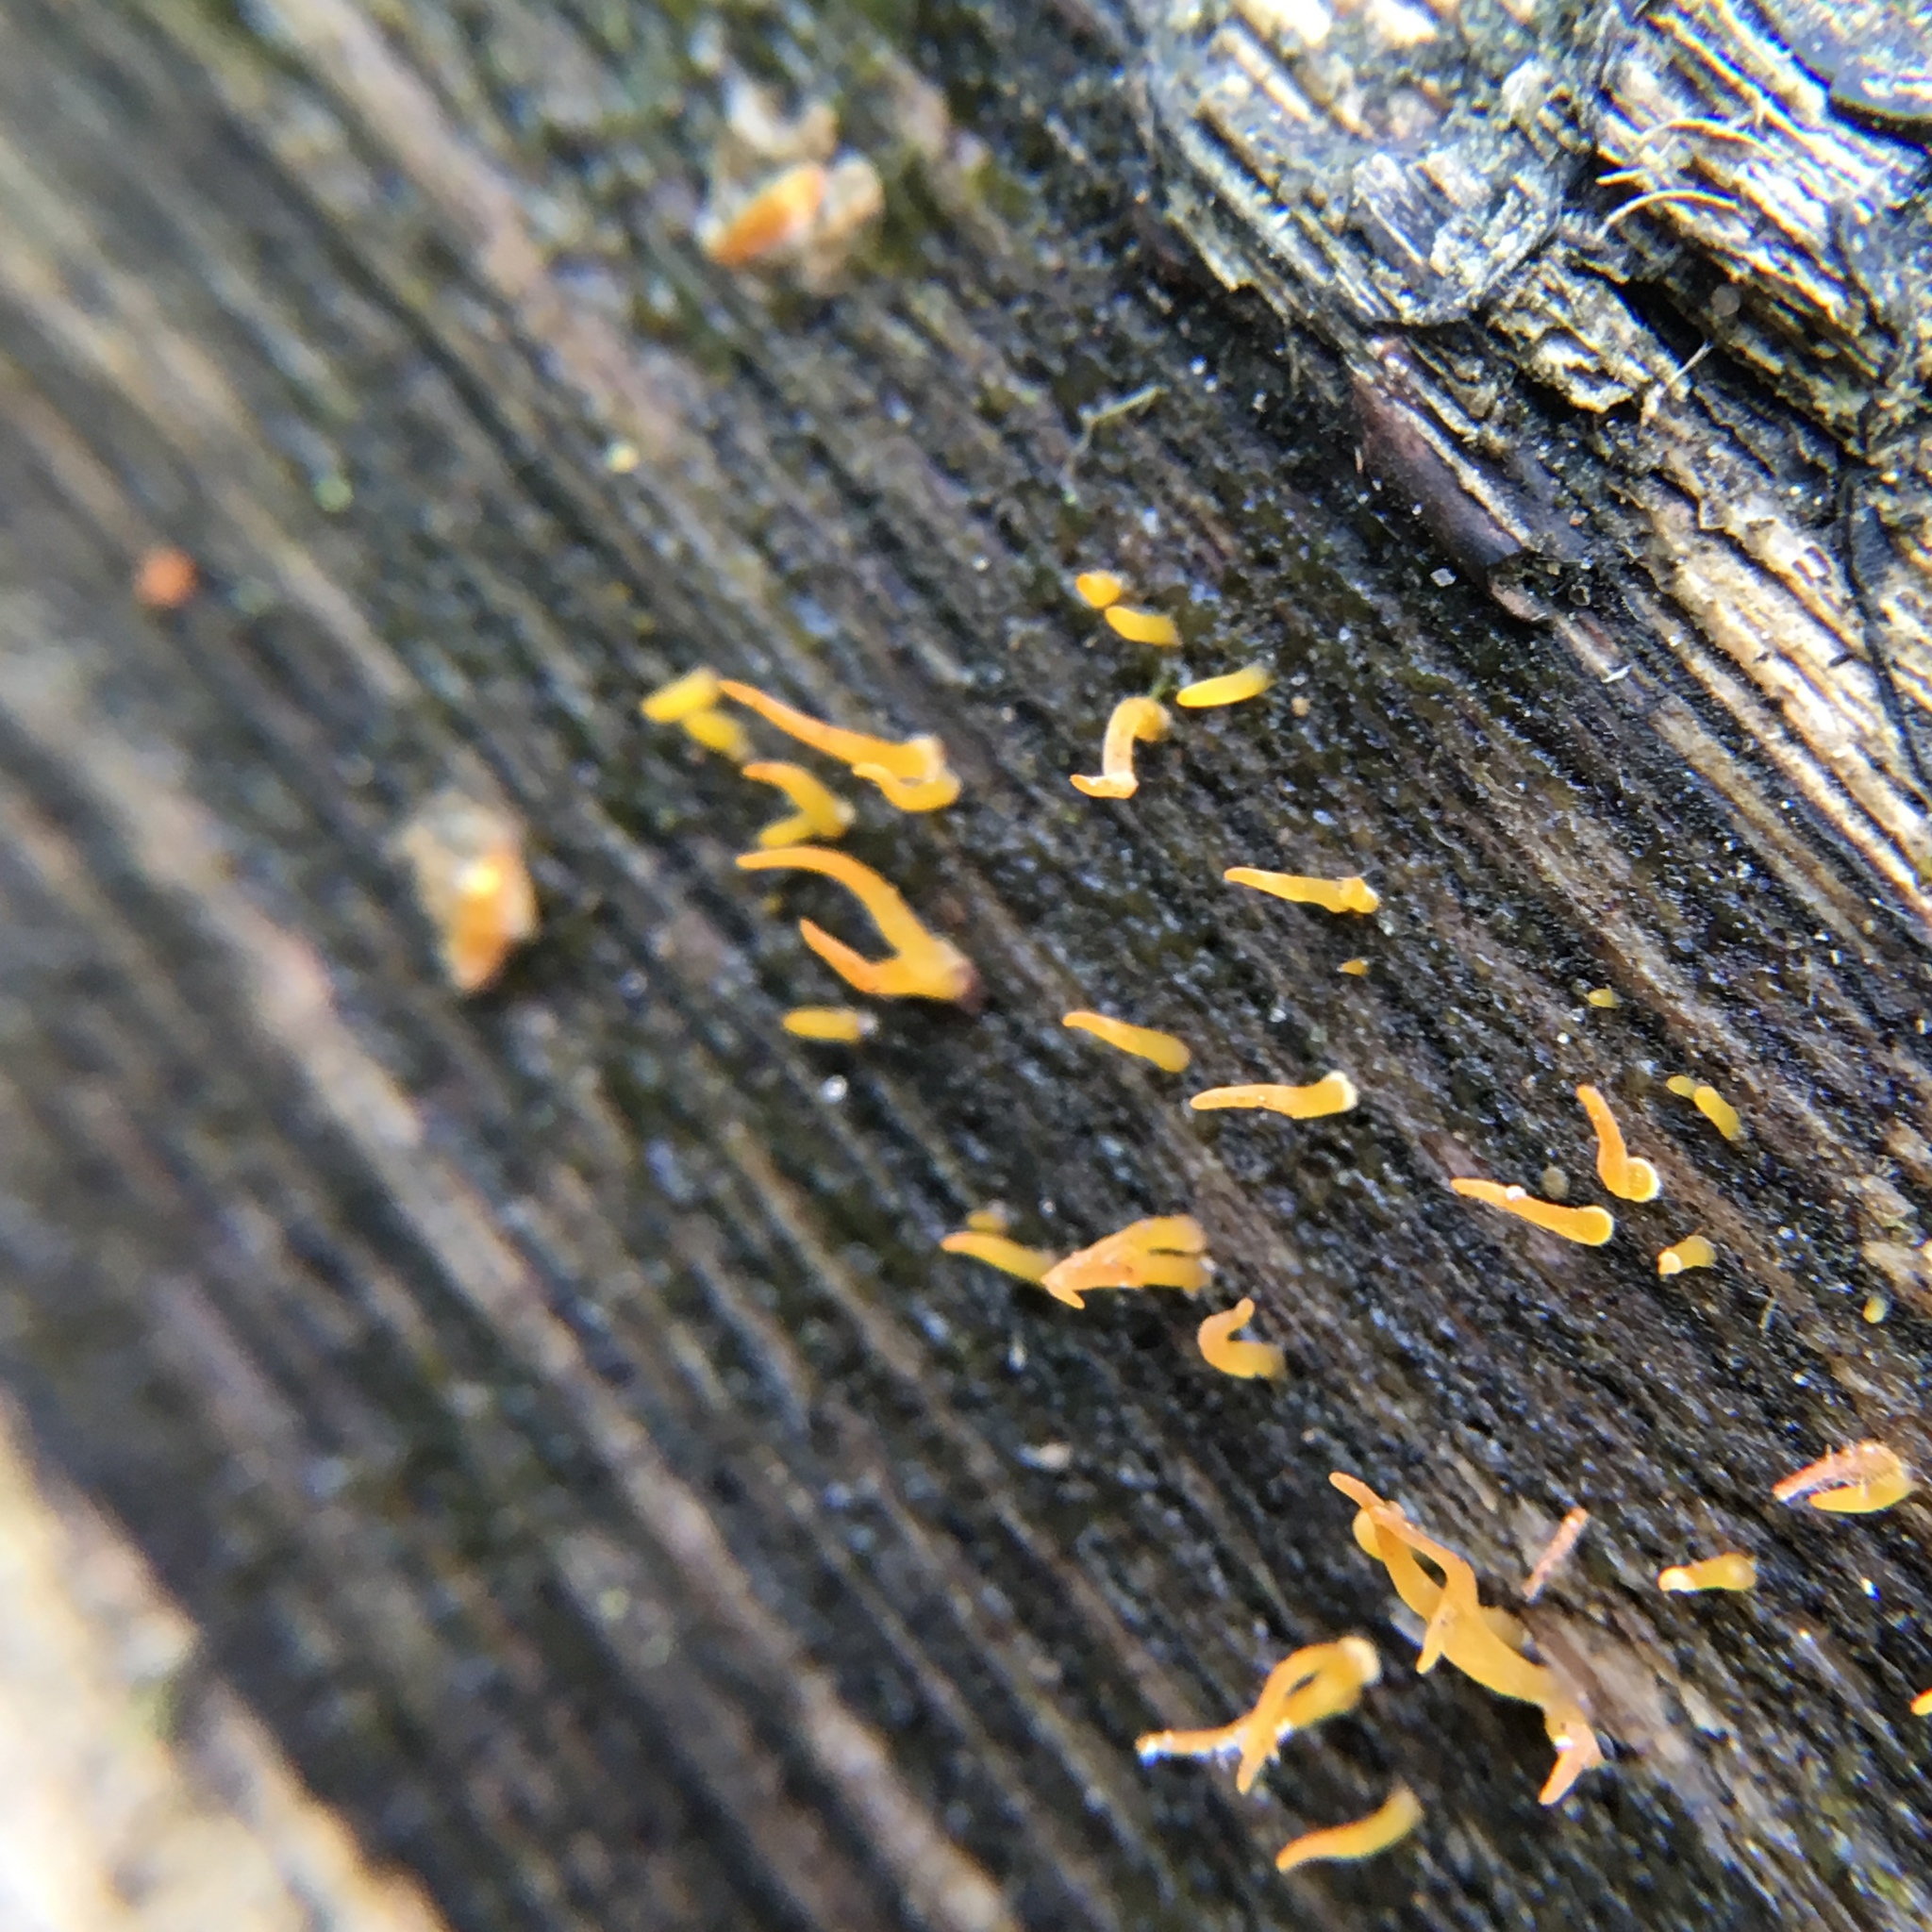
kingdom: Fungi
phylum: Basidiomycota
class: Dacrymycetes
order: Dacrymycetales
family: Dacrymycetaceae
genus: Calocera
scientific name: Calocera cornea
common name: Small stagshorn
